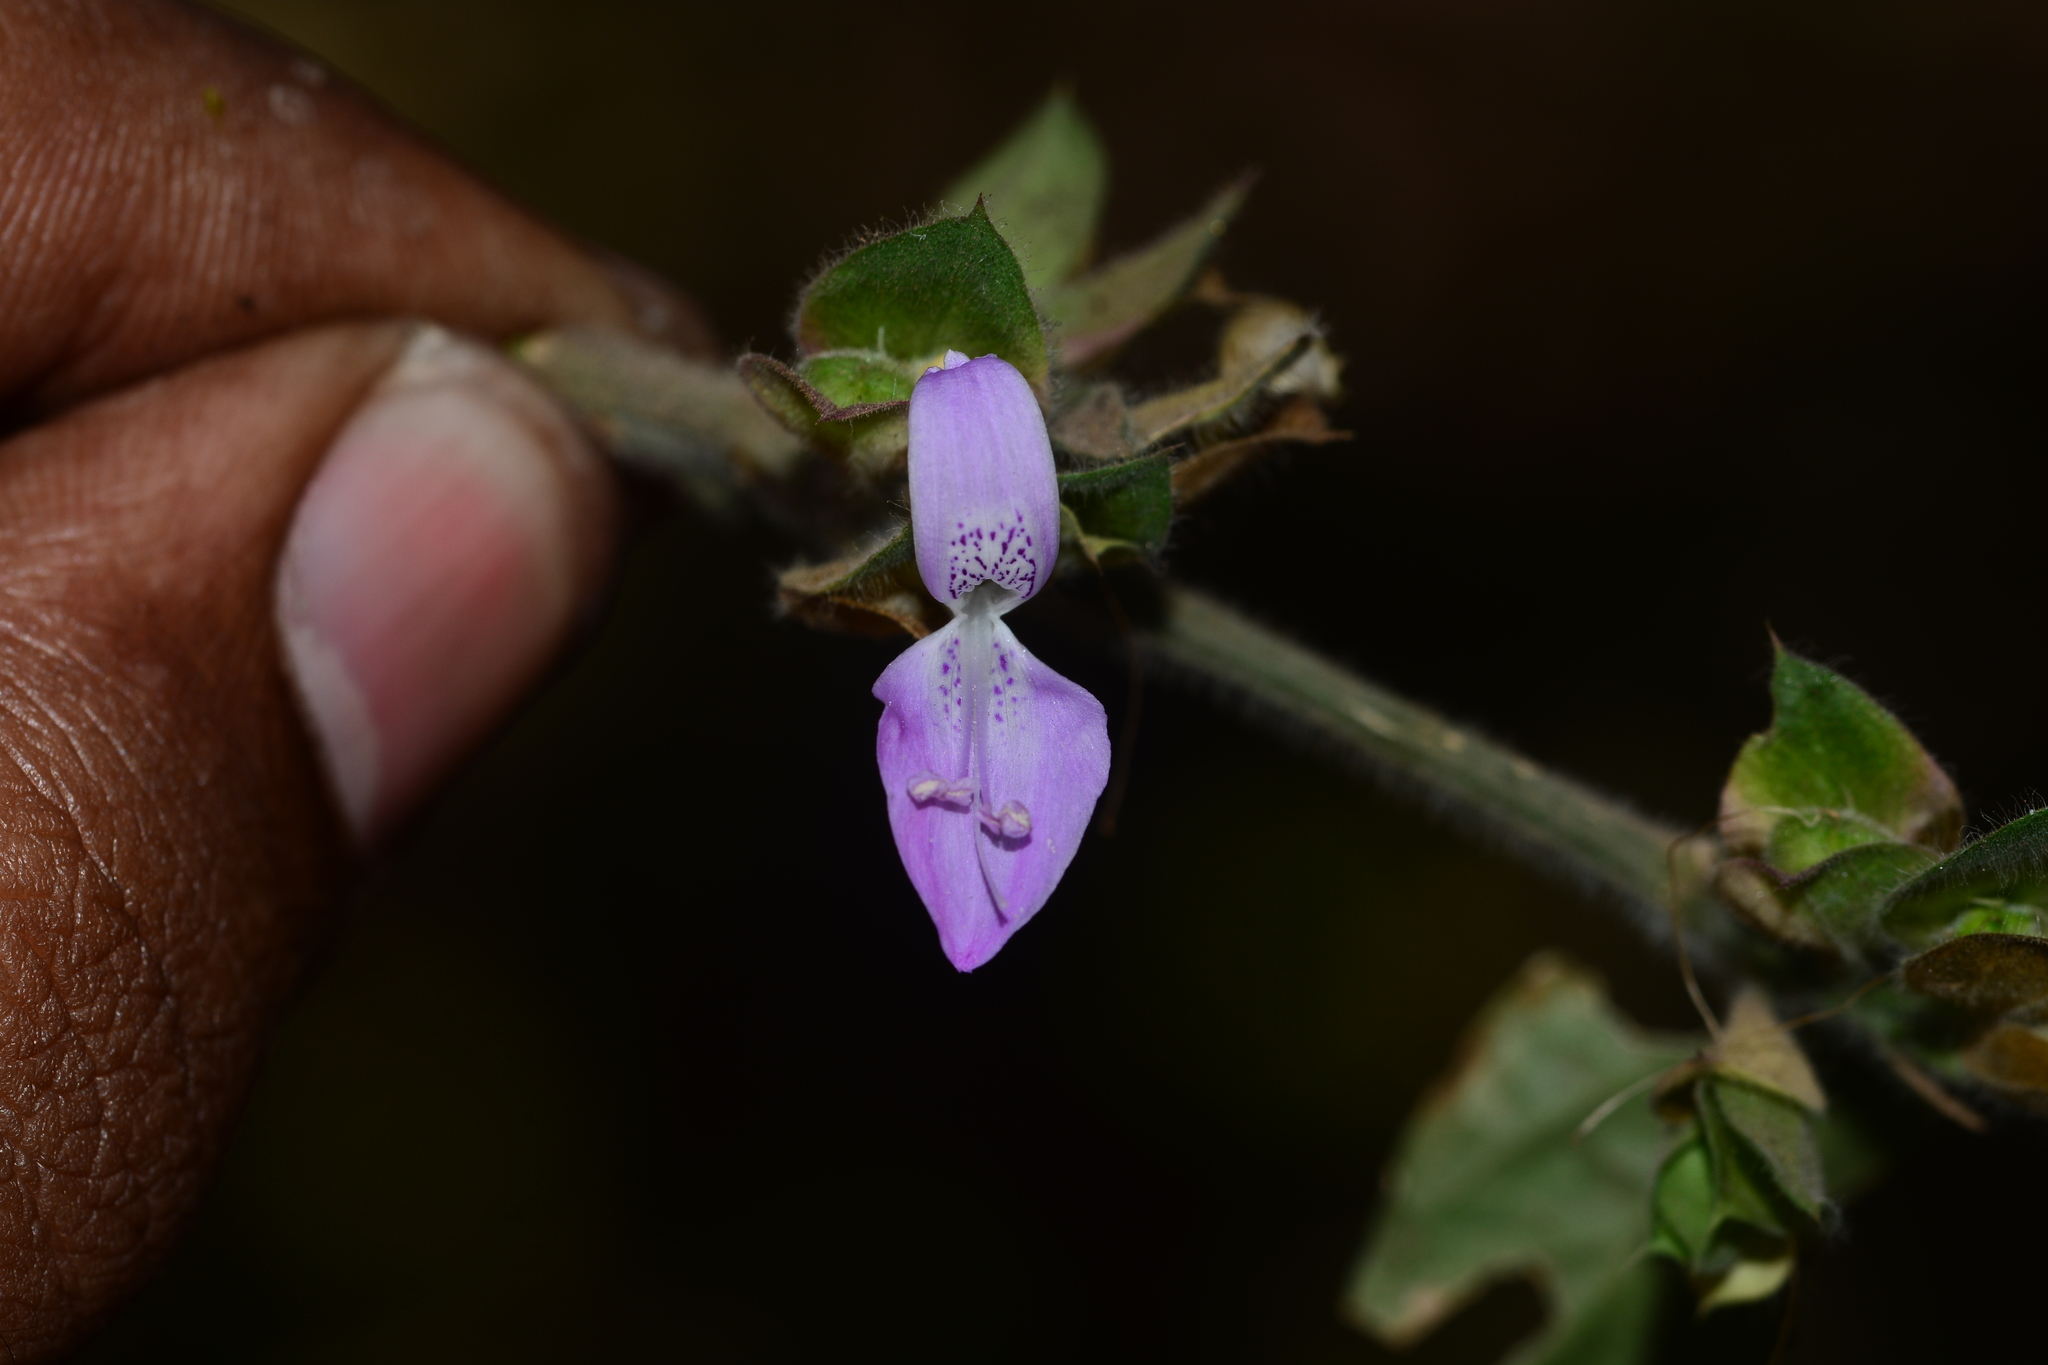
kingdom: Plantae
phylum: Tracheophyta
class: Magnoliopsida
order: Lamiales
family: Acanthaceae
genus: Dicliptera
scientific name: Dicliptera foetida
